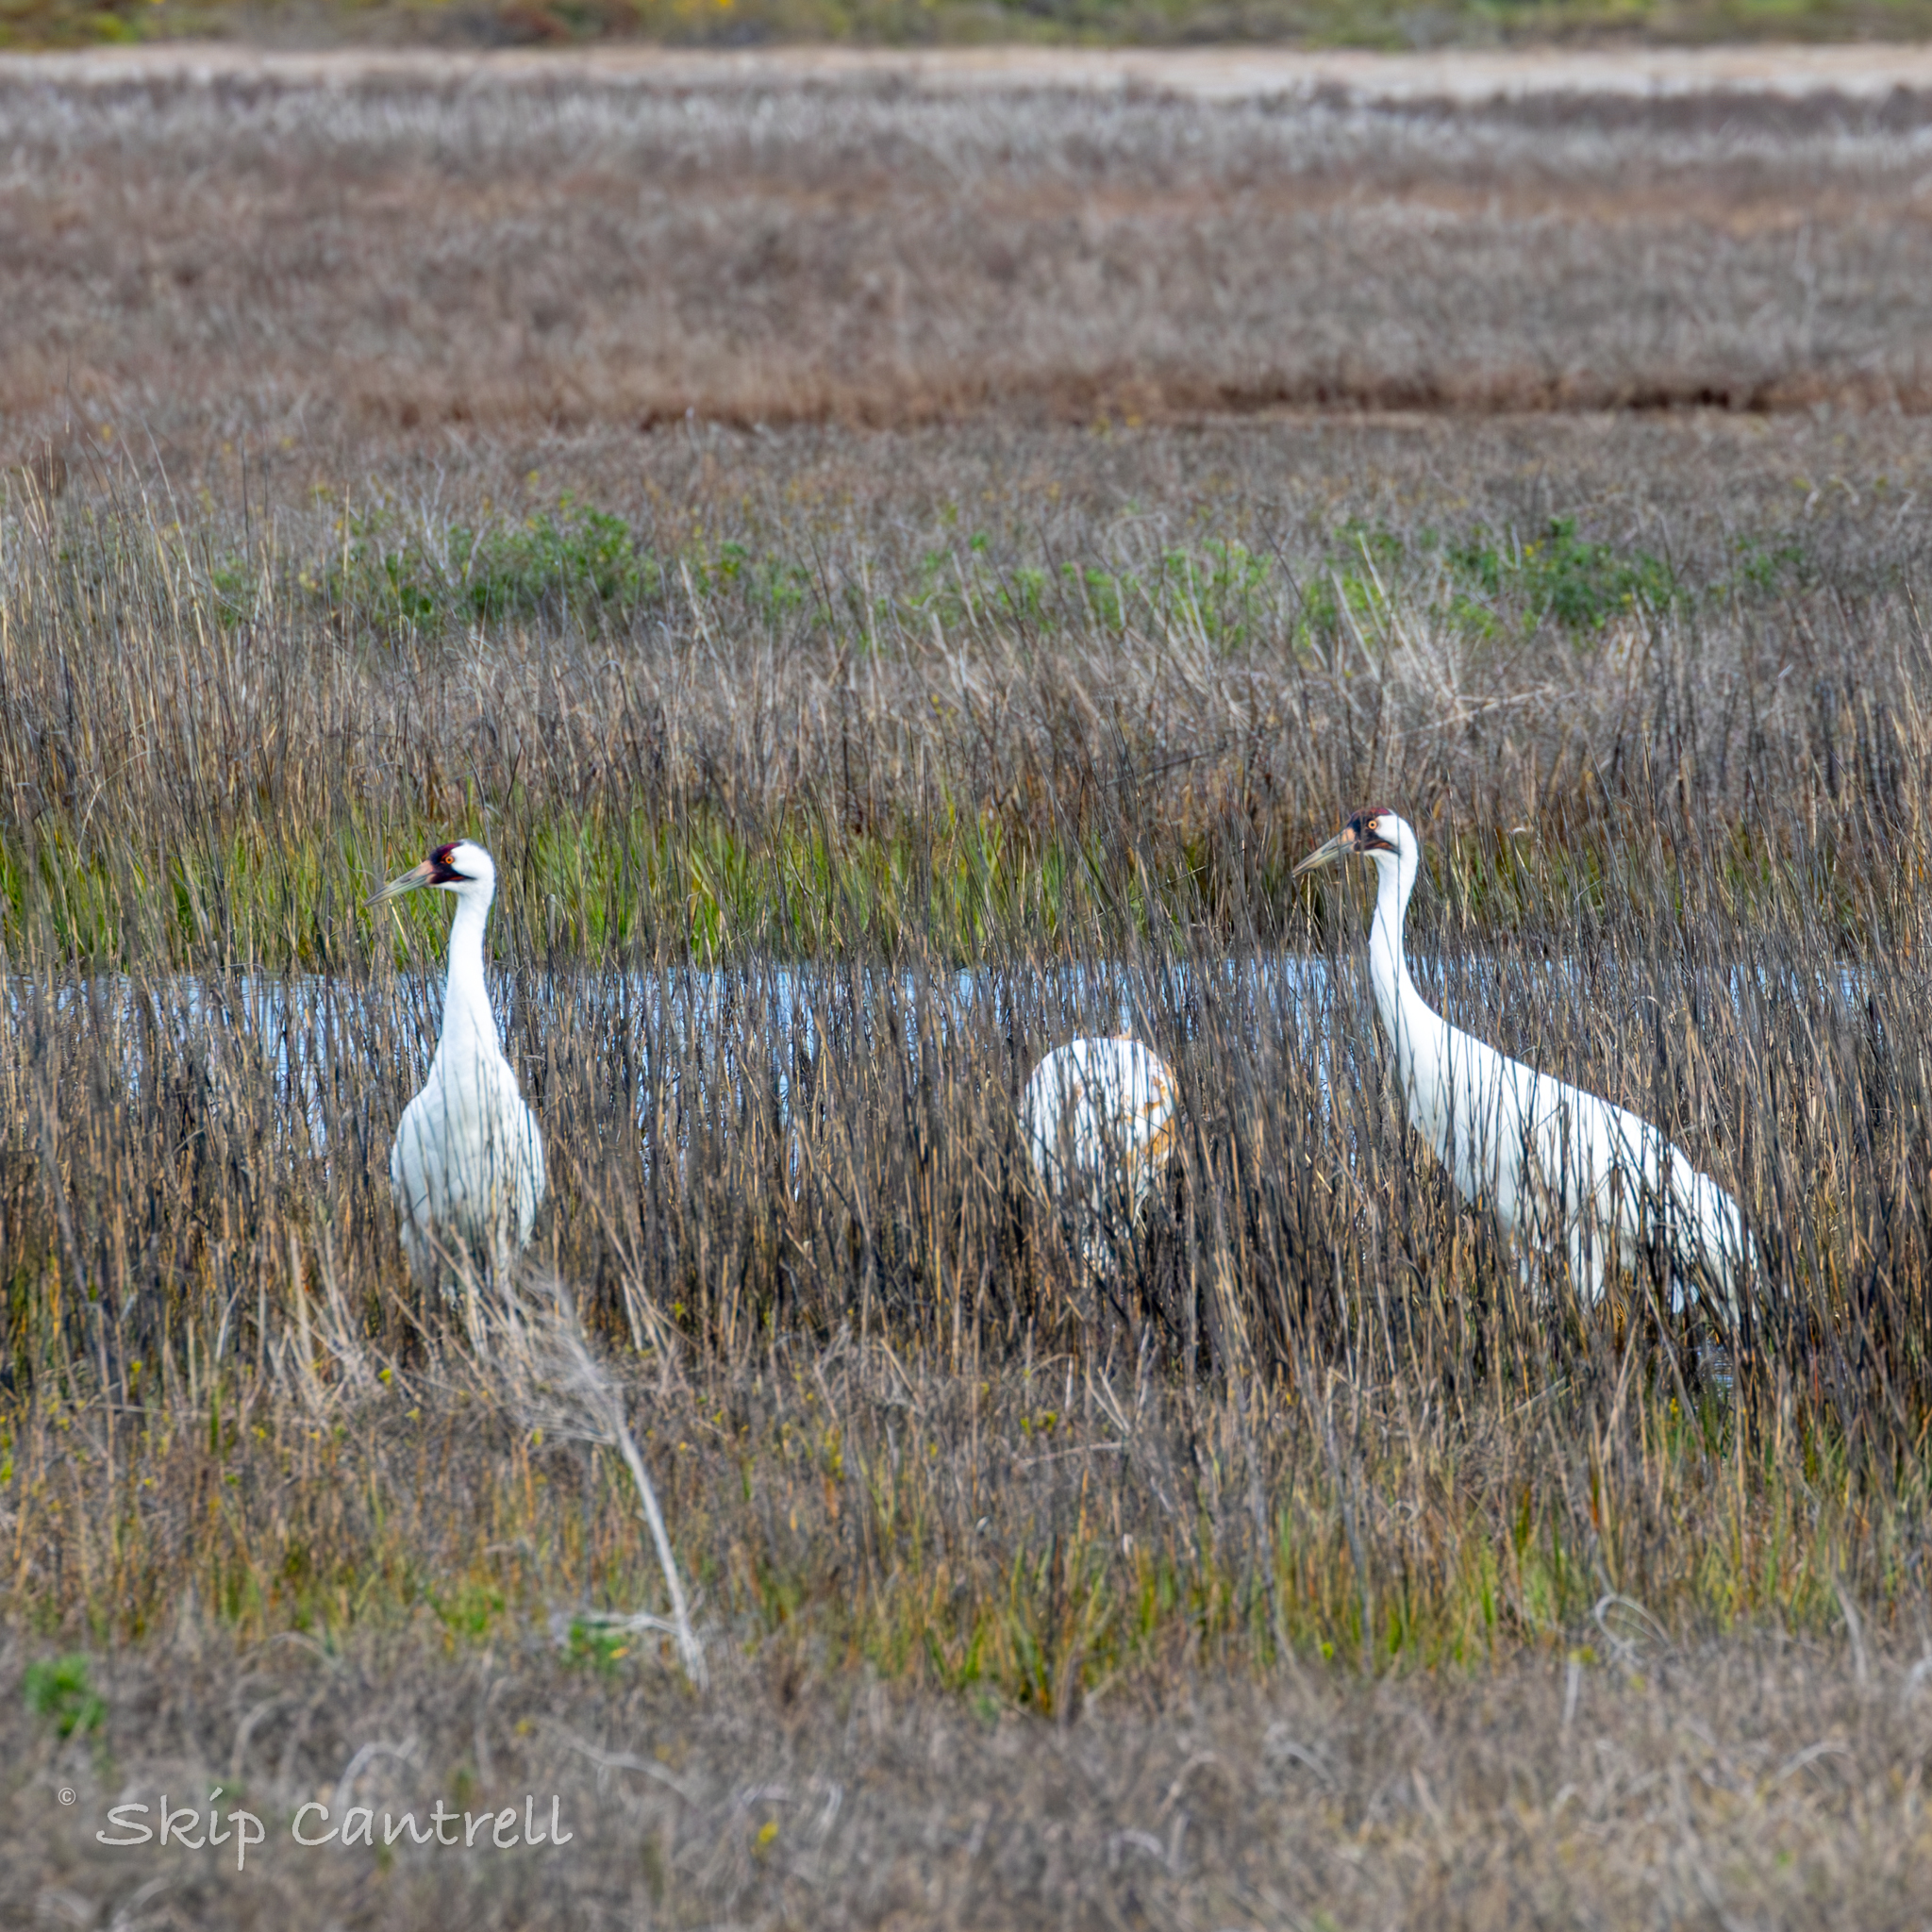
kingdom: Animalia
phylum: Chordata
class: Aves
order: Gruiformes
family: Gruidae
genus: Grus
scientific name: Grus americana
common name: Whooping crane
